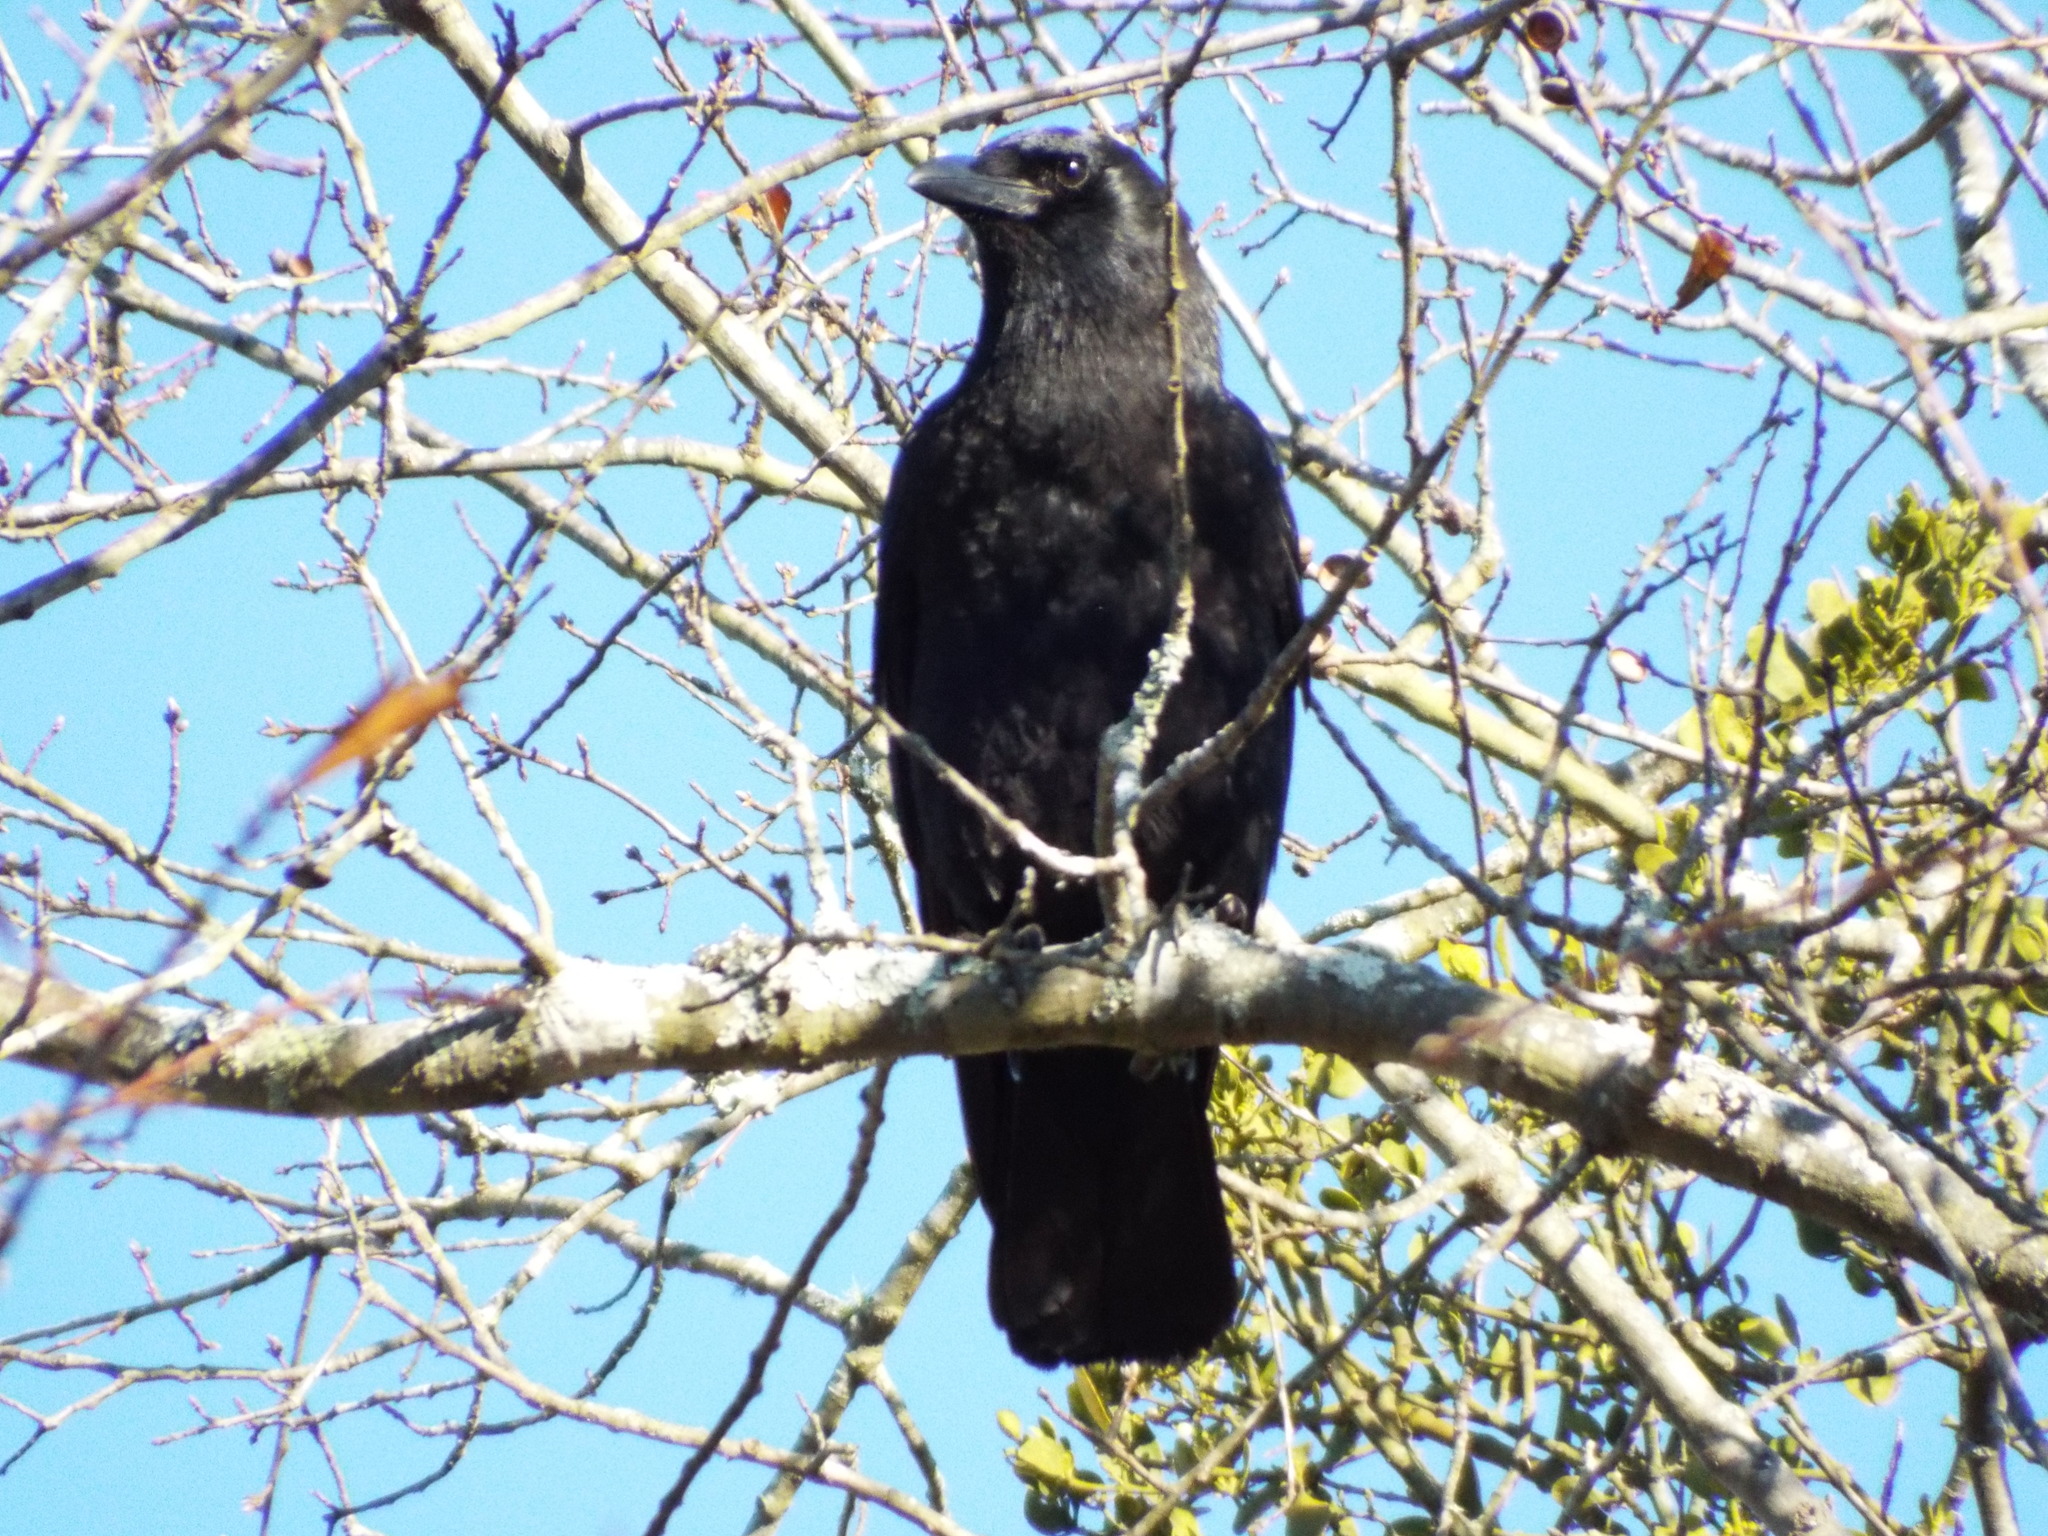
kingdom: Animalia
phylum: Chordata
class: Aves
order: Passeriformes
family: Corvidae
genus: Corvus
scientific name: Corvus brachyrhynchos
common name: American crow
